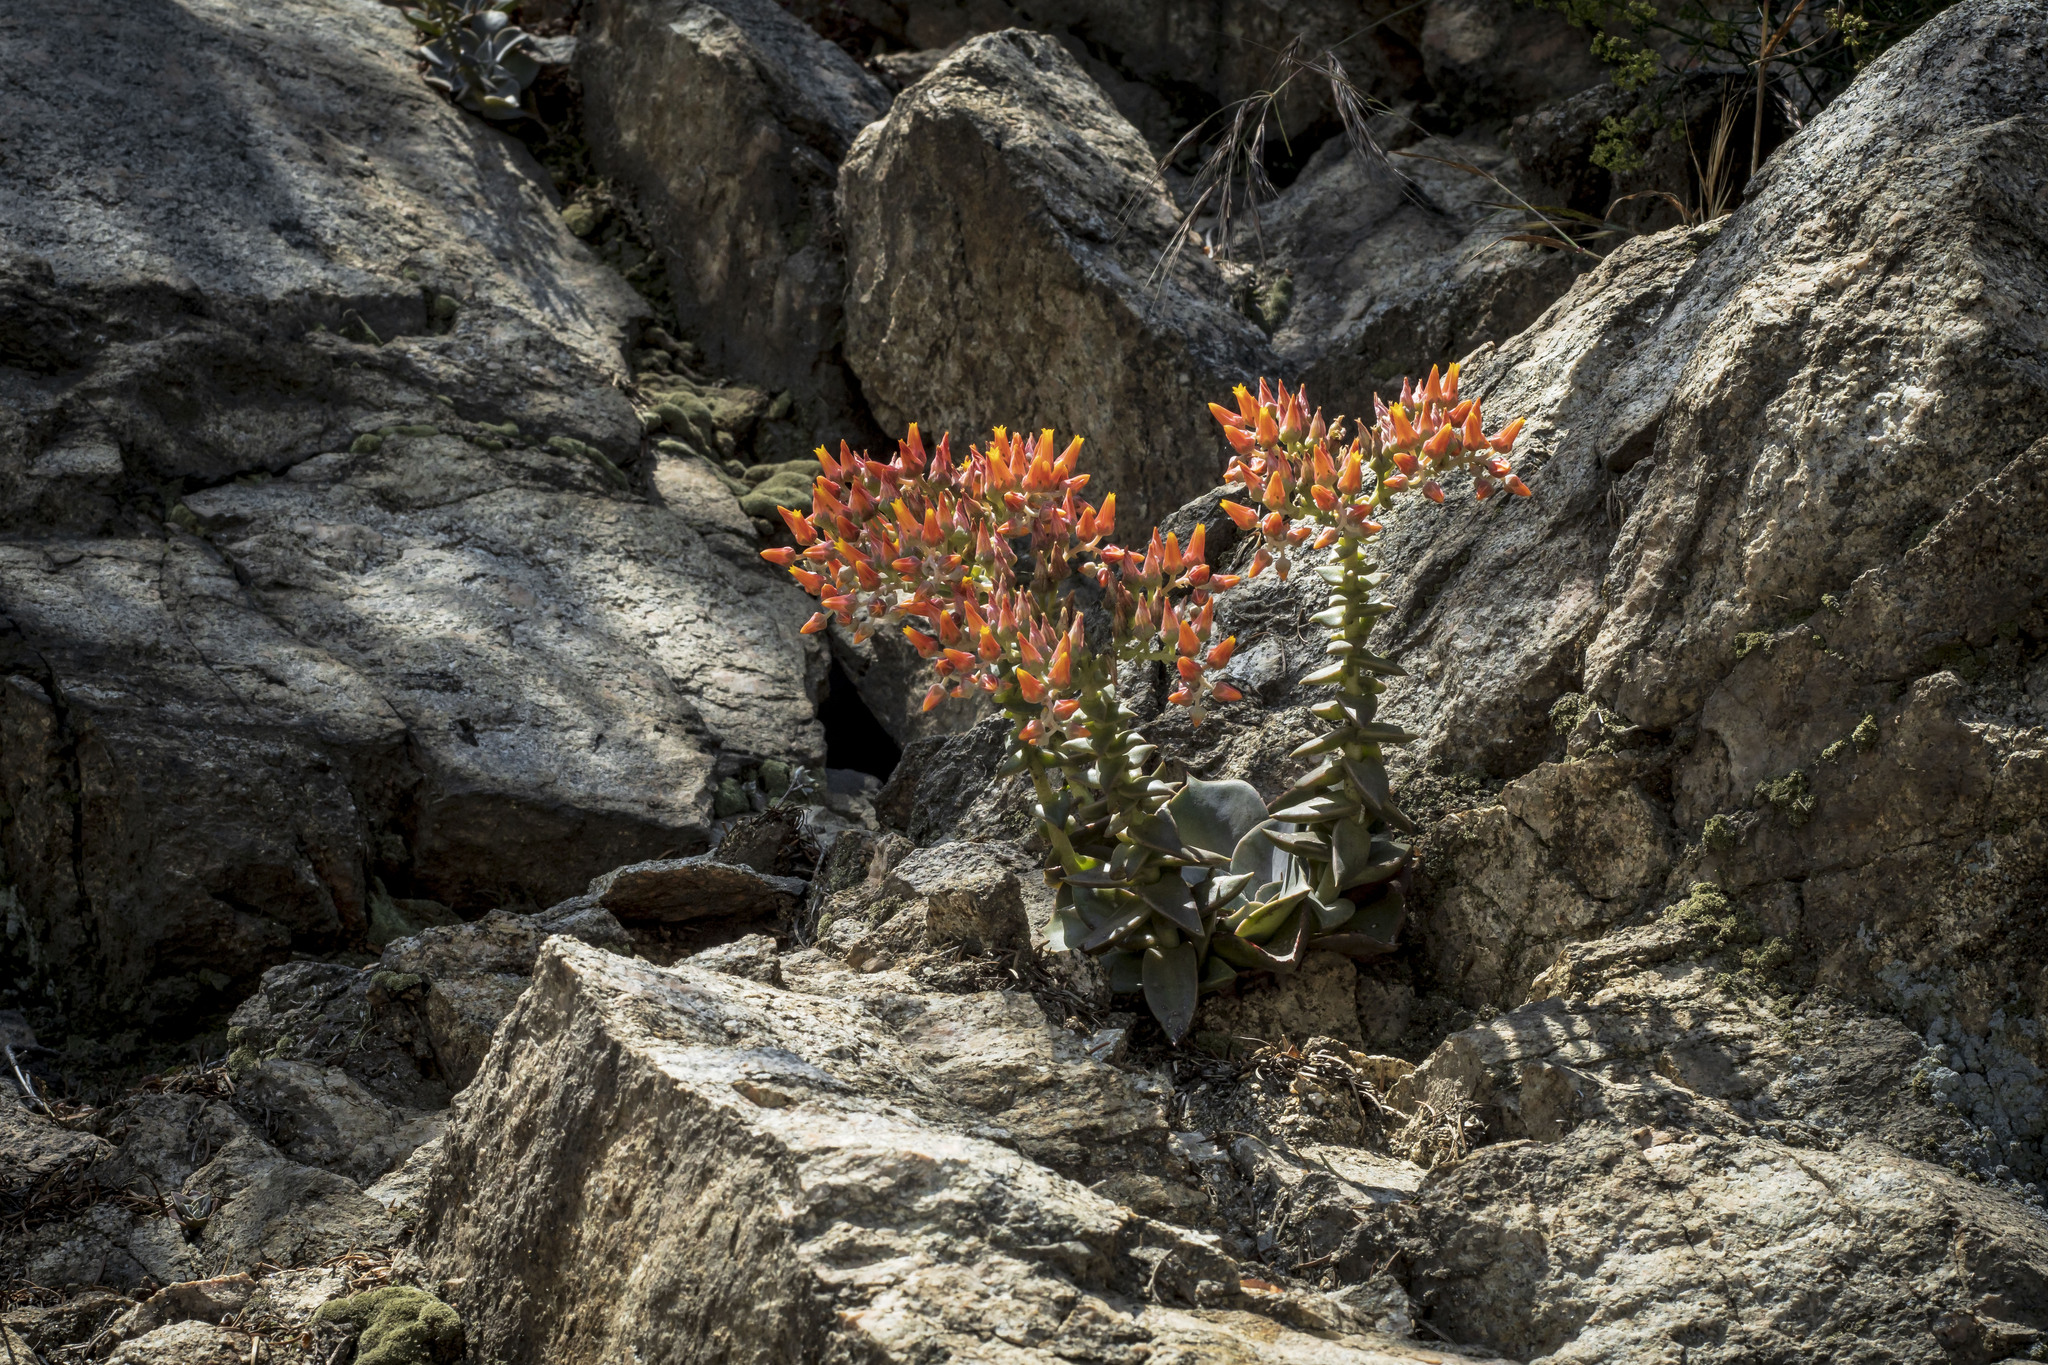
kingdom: Plantae
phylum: Tracheophyta
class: Magnoliopsida
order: Saxifragales
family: Crassulaceae
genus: Dudleya
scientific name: Dudleya cymosa
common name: Canyon dudleya
